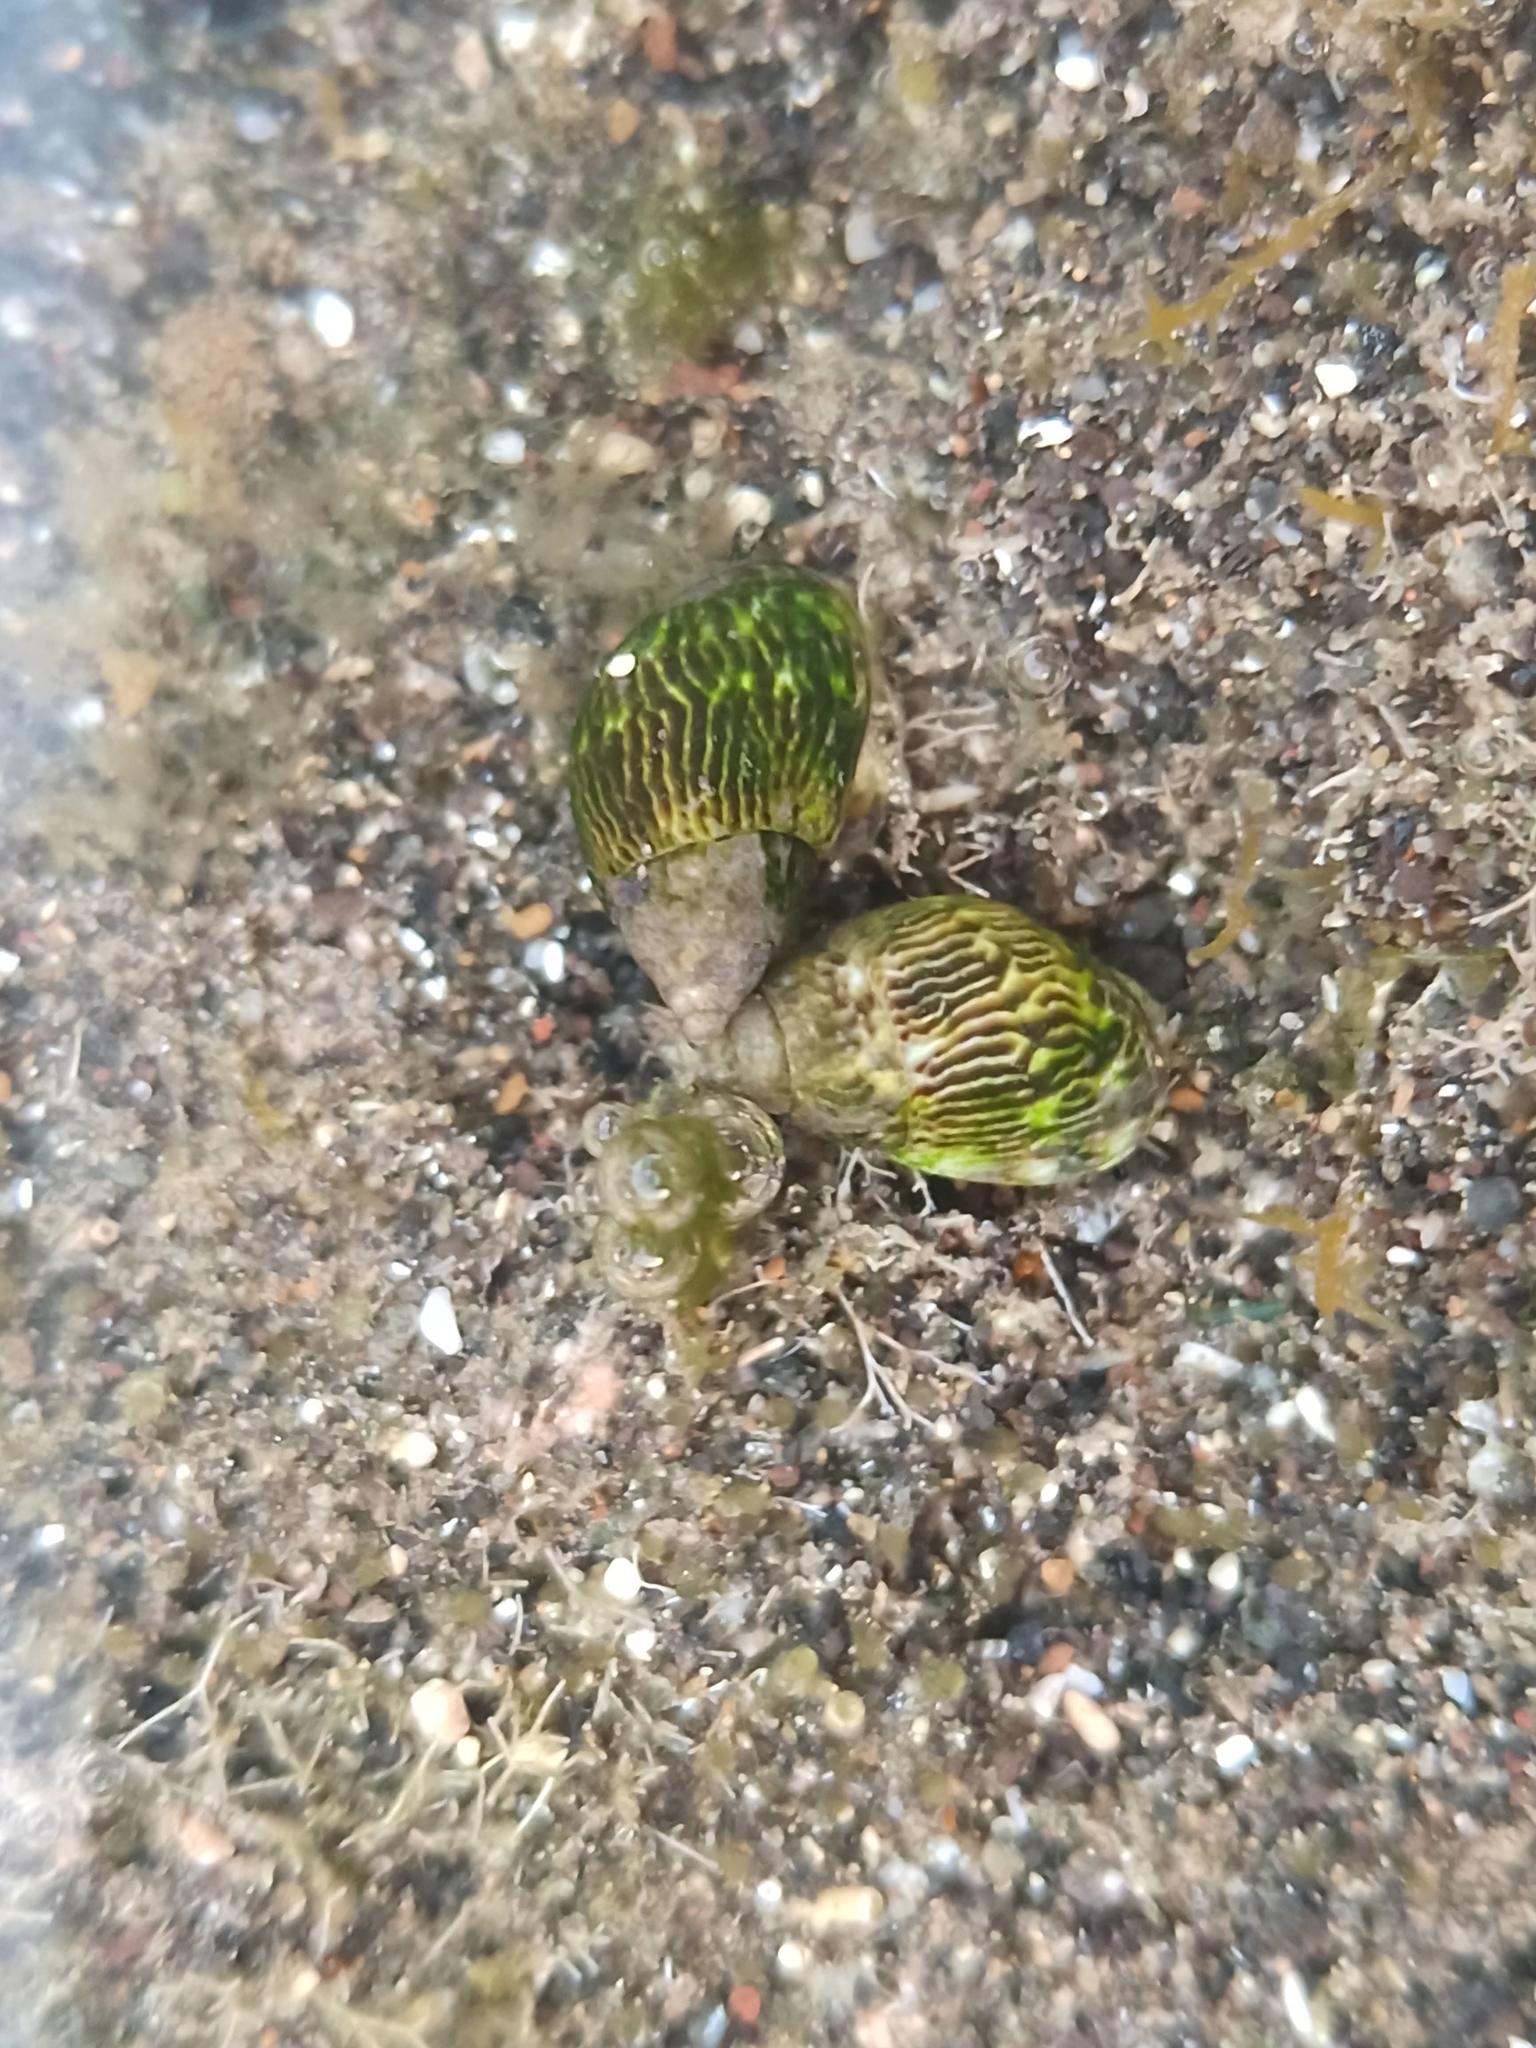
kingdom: Animalia
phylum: Mollusca
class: Gastropoda
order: Neogastropoda
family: Costellariidae
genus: Pusia
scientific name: Pusia zebrina
